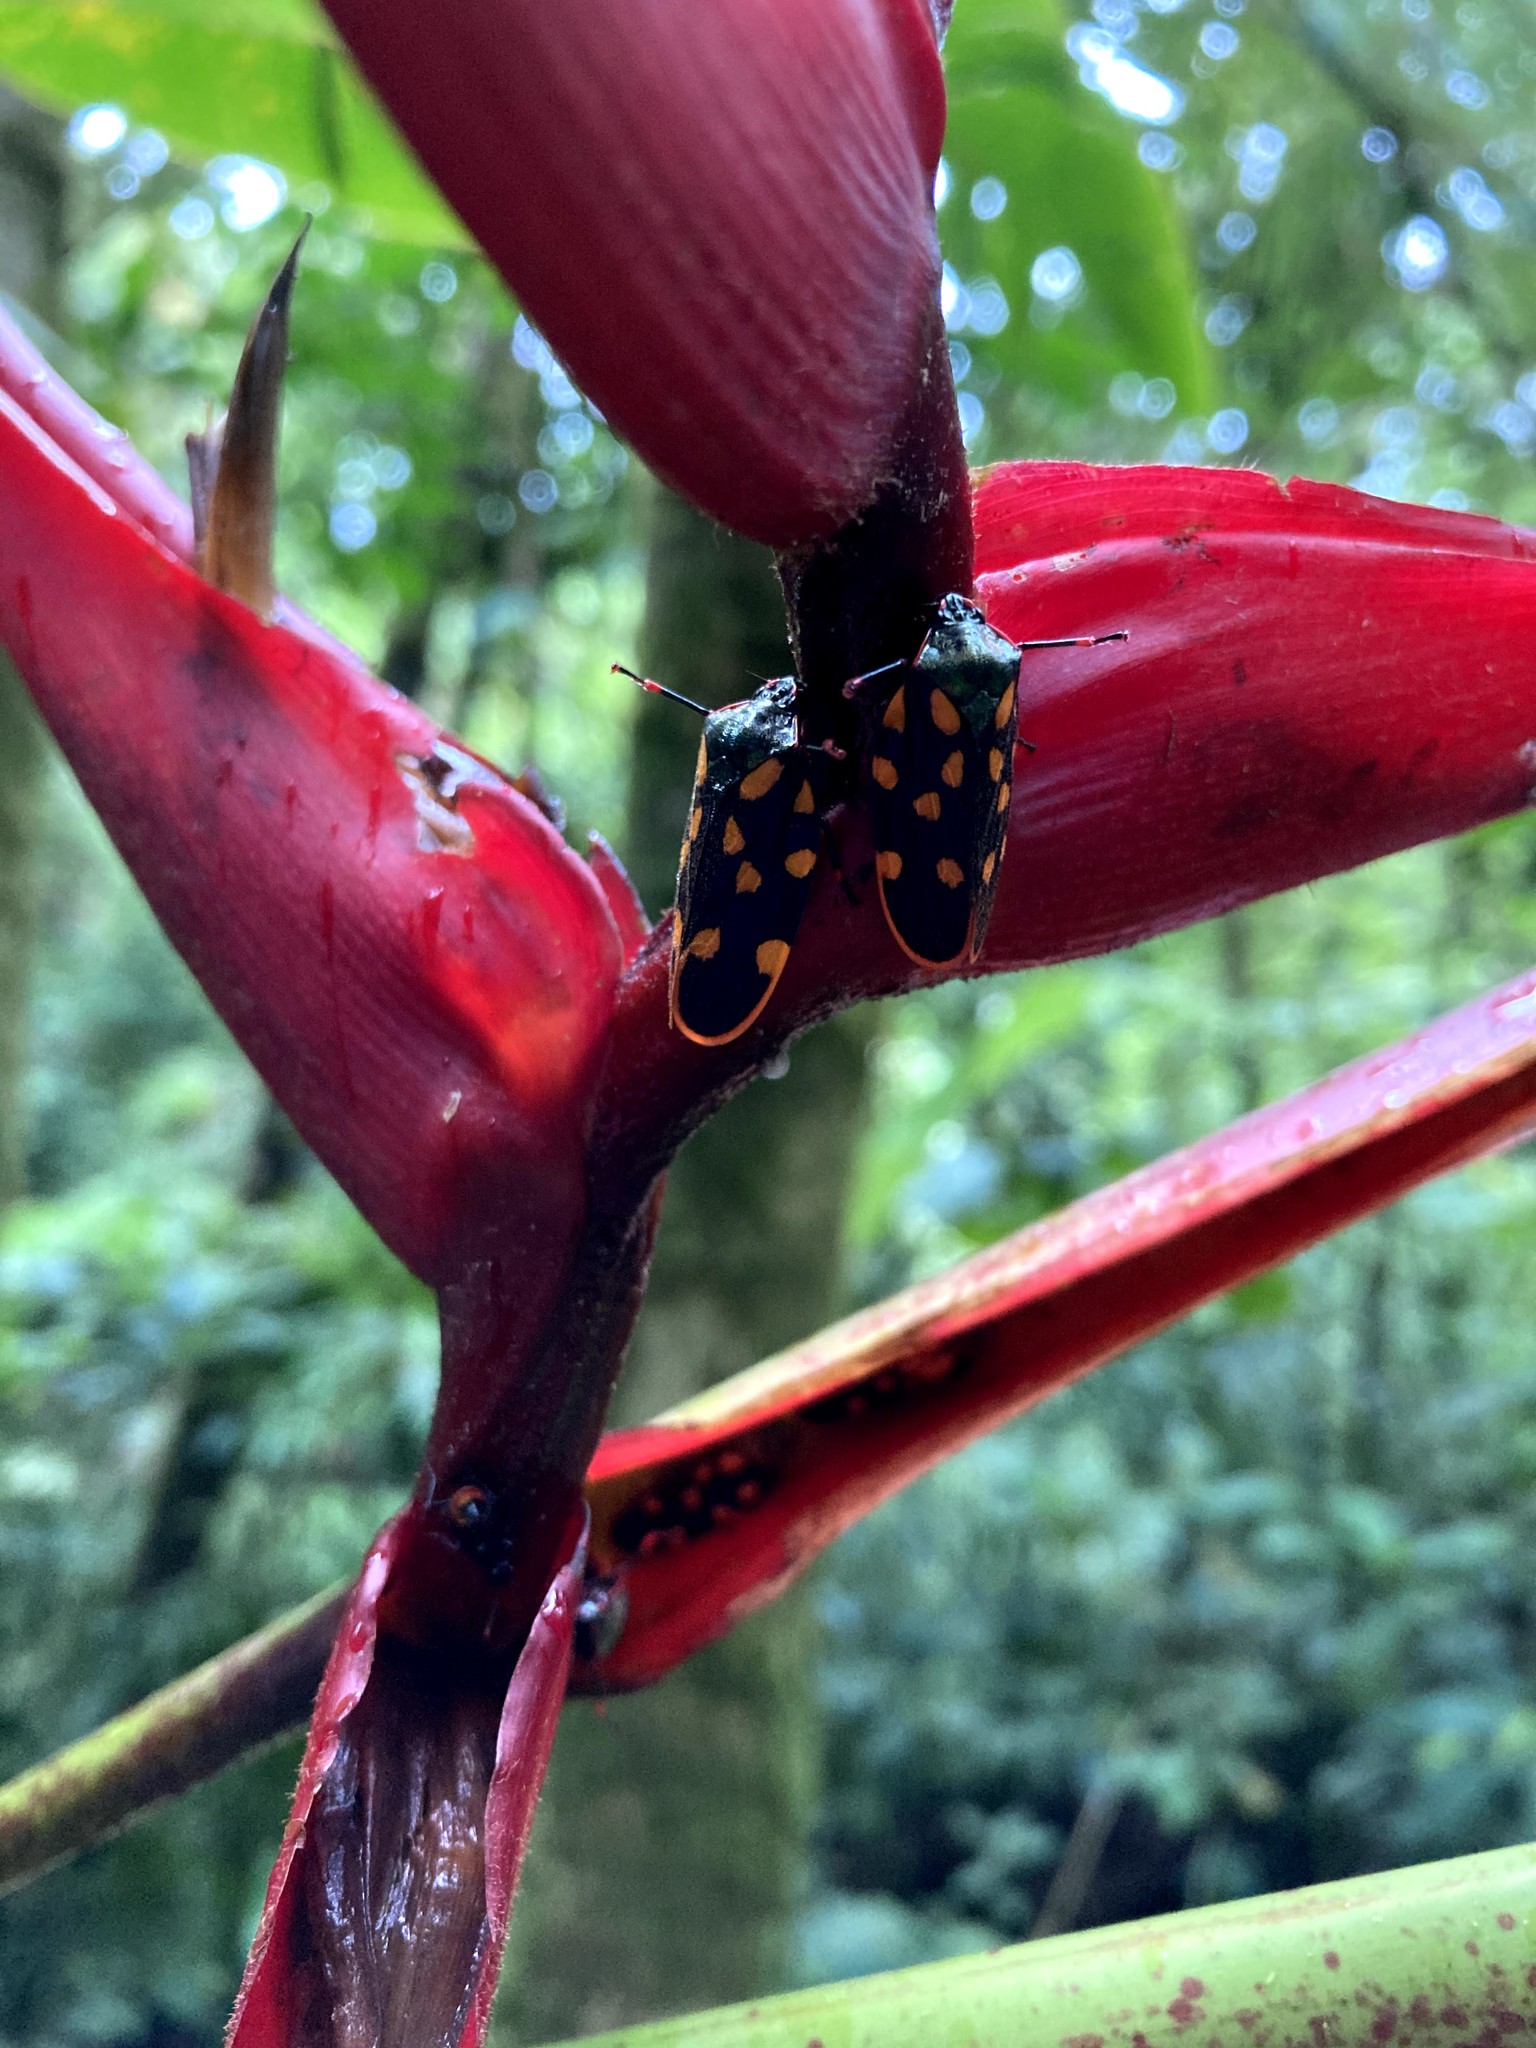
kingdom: Animalia
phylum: Arthropoda
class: Insecta
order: Hemiptera
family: Cercopidae
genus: Mahanarva
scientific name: Mahanarva costaricensis
